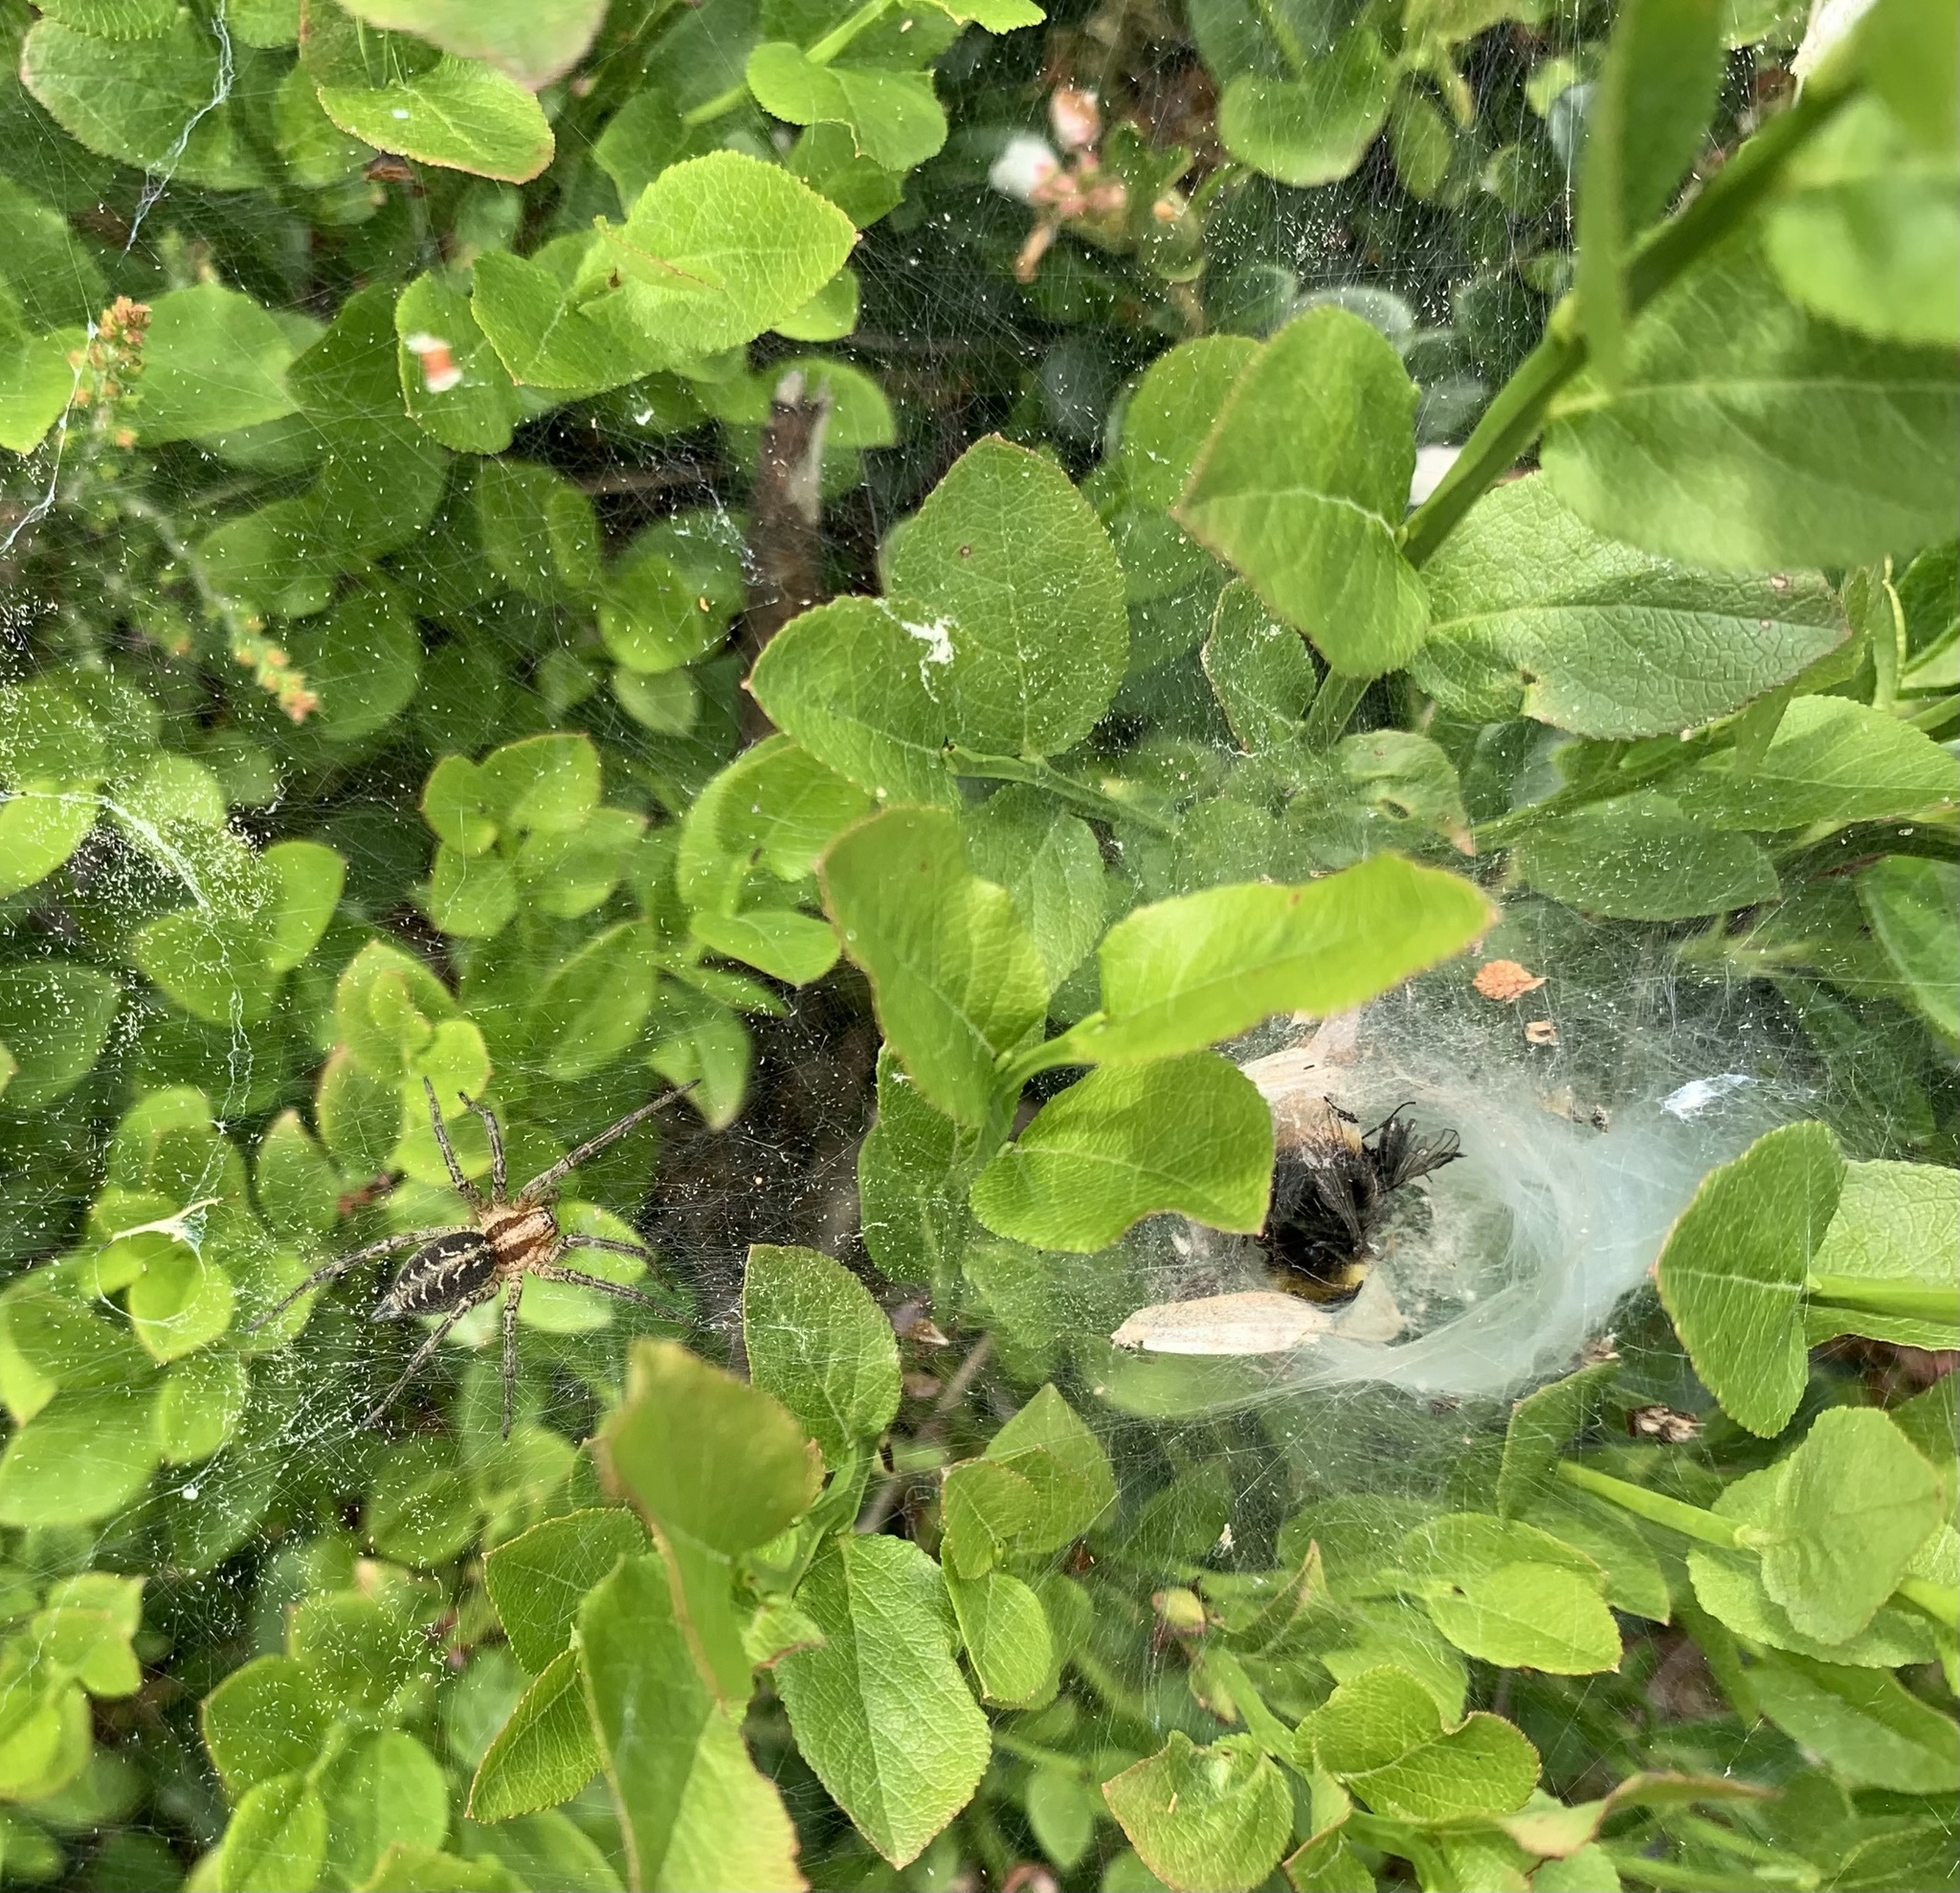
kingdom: Animalia
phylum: Arthropoda
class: Arachnida
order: Araneae
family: Agelenidae
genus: Agelena
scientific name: Agelena labyrinthica
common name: Labyrinth spider
